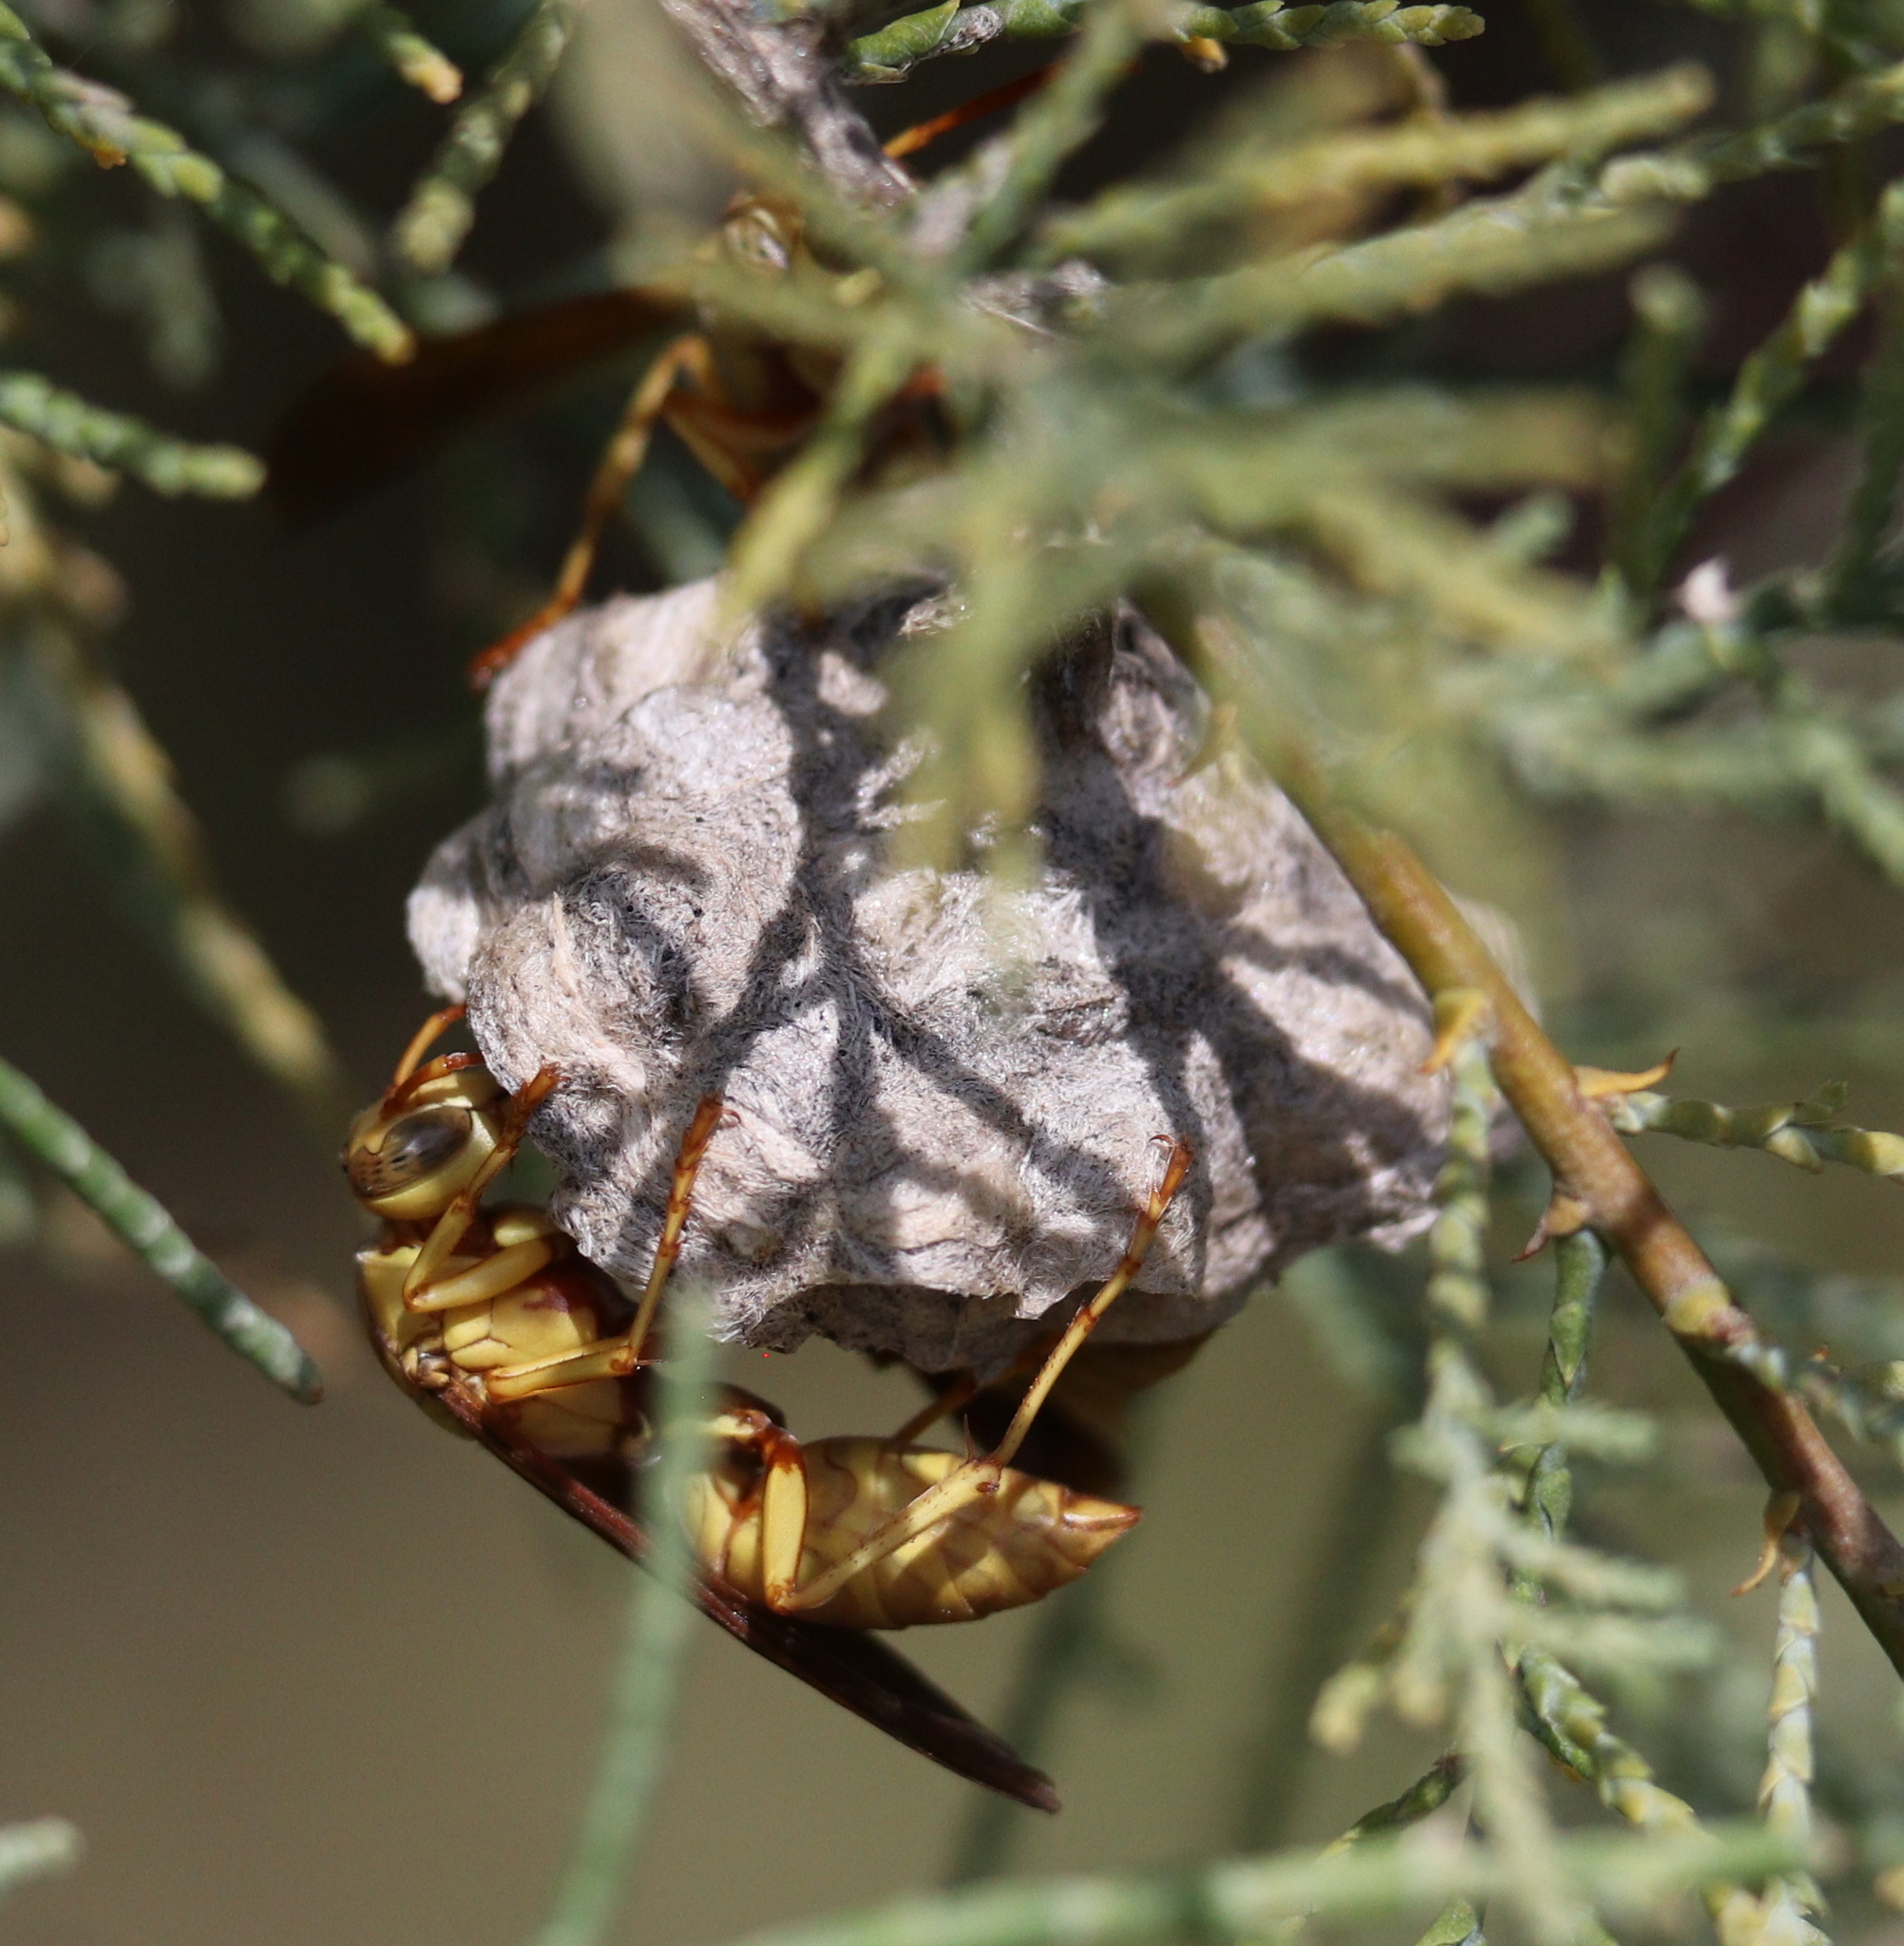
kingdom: Animalia
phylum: Arthropoda
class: Insecta
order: Hymenoptera
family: Eumenidae
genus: Polistes
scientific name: Polistes aurifer
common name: Paper wasp
